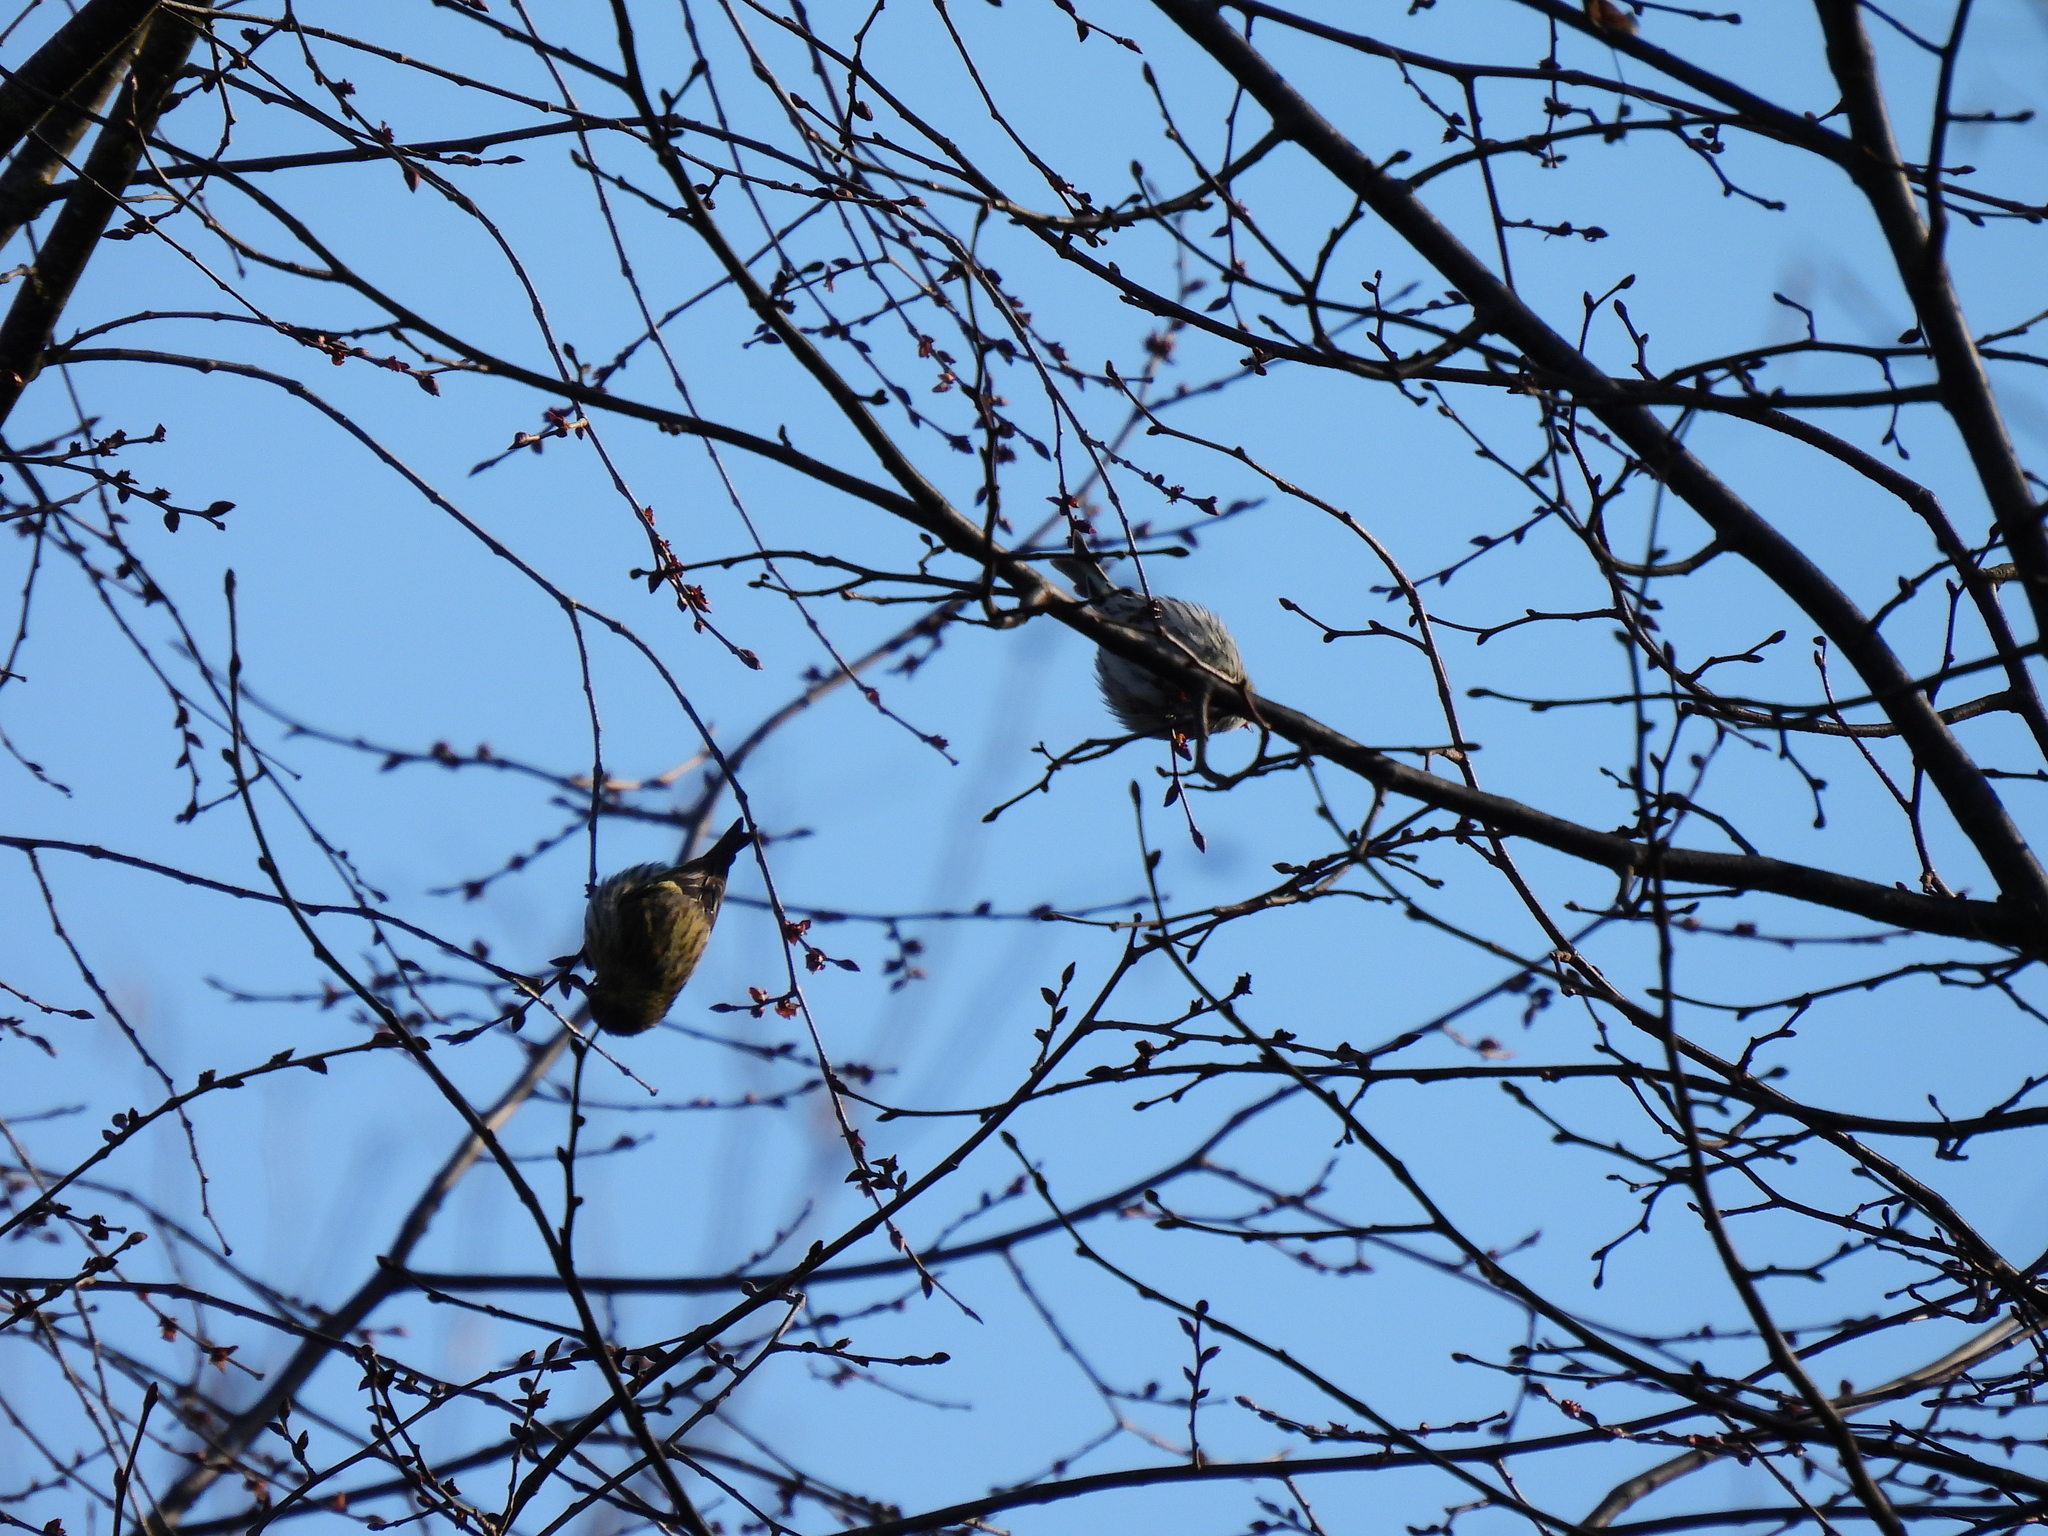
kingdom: Animalia
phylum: Chordata
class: Aves
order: Passeriformes
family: Fringillidae
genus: Spinus
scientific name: Spinus spinus
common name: Eurasian siskin
